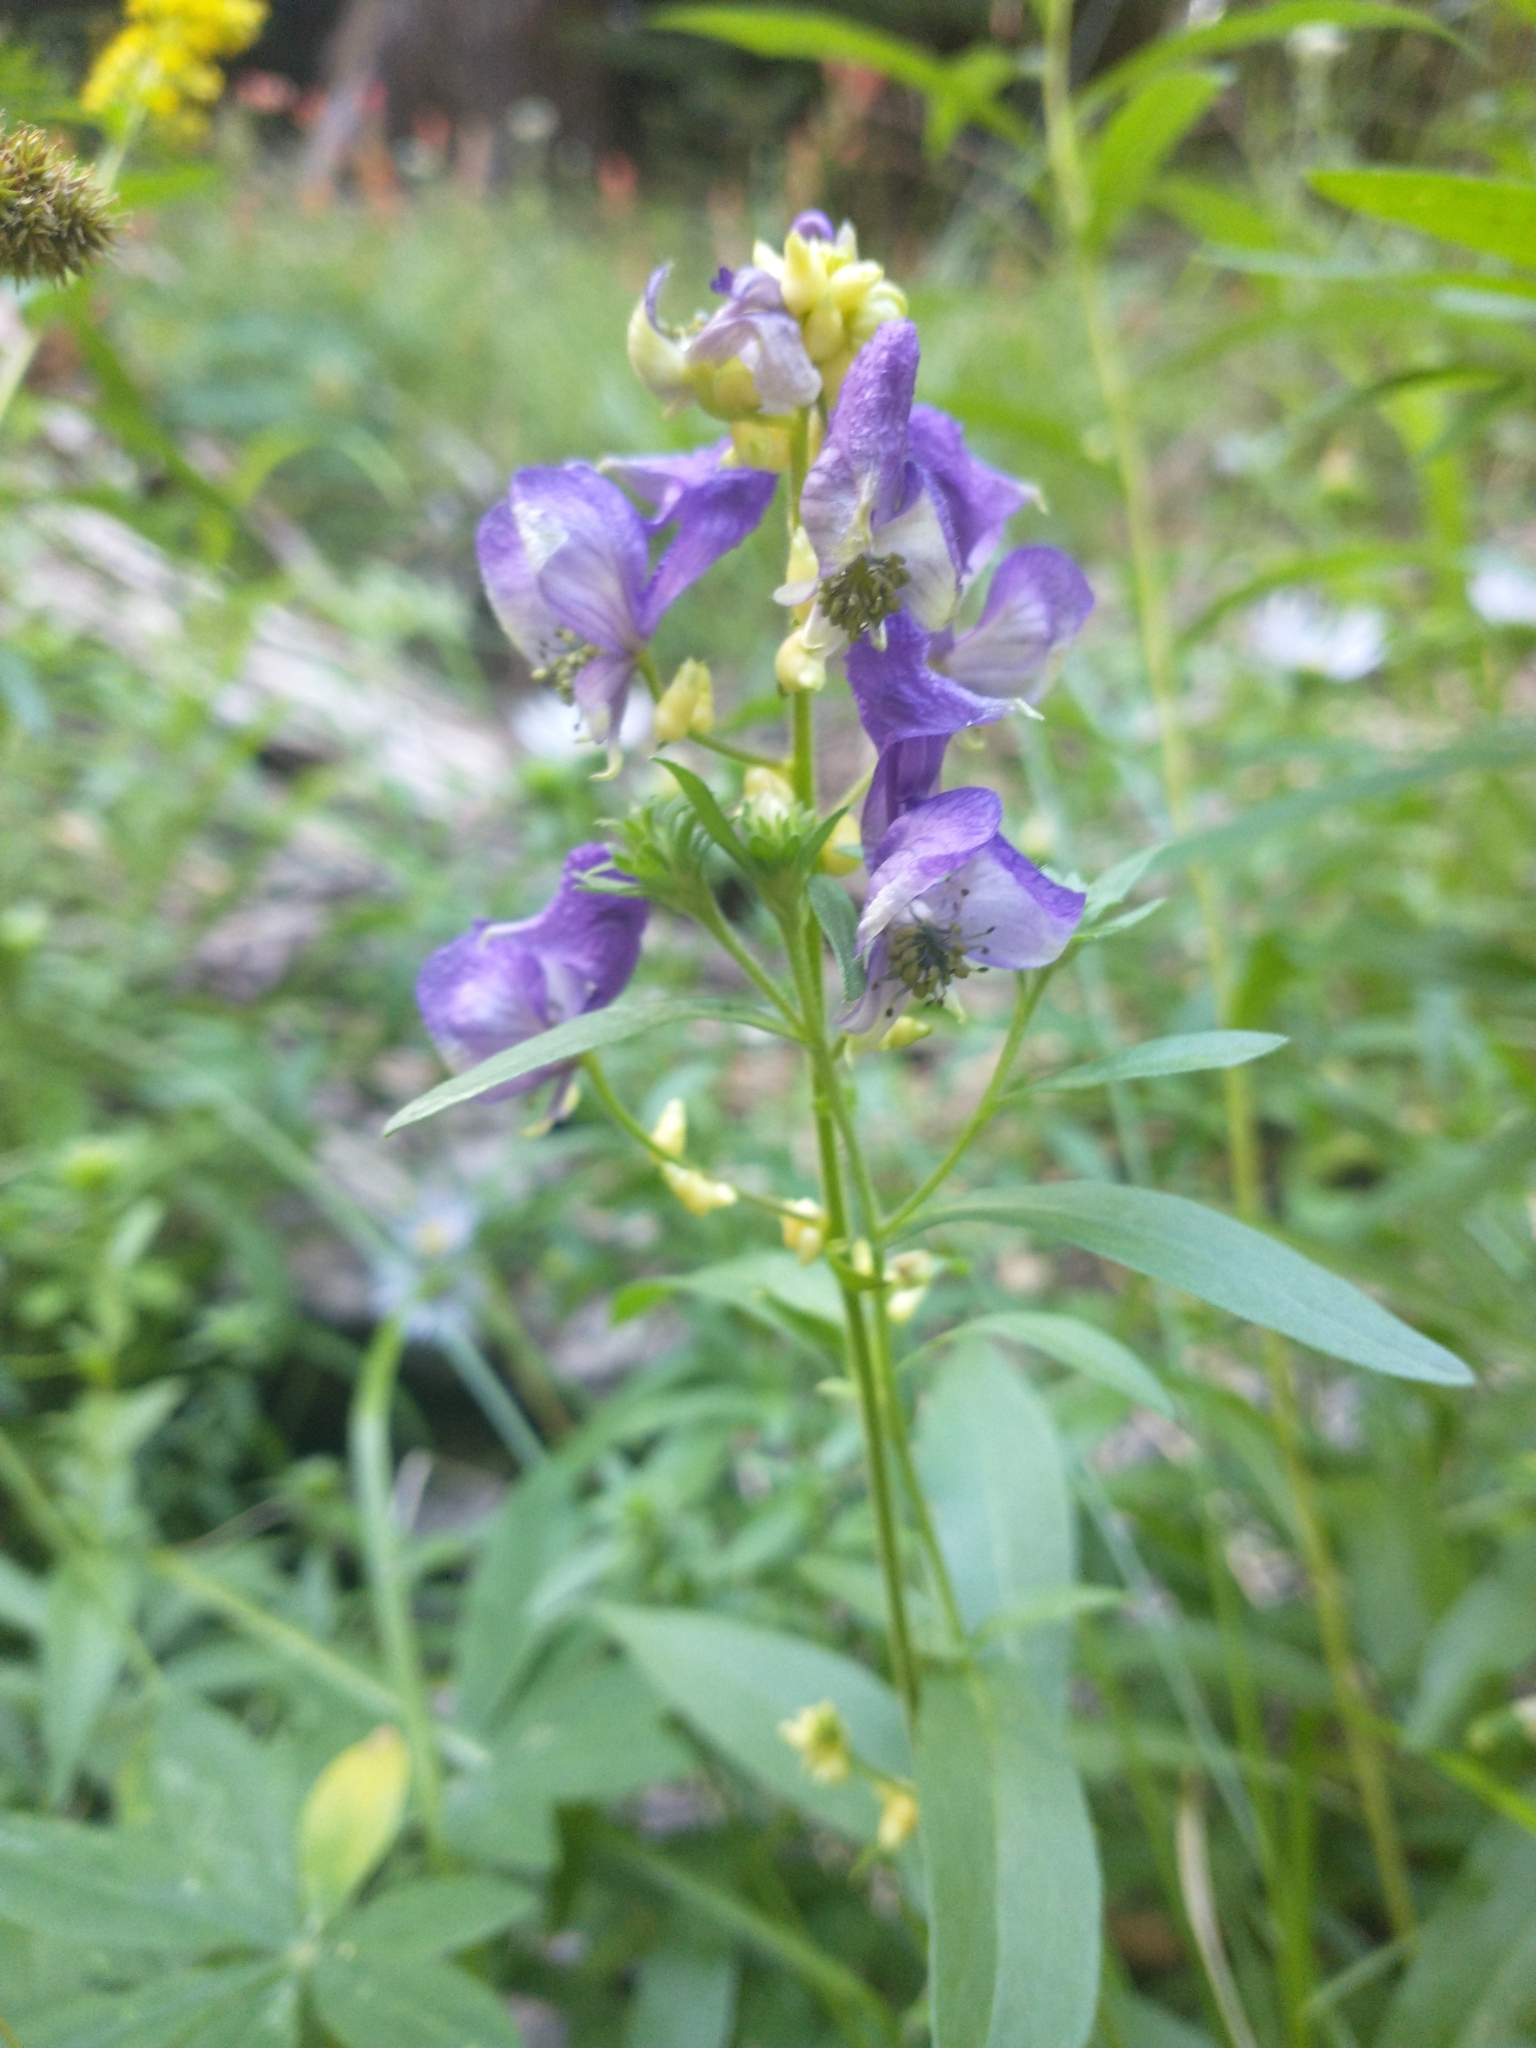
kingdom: Plantae
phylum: Tracheophyta
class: Magnoliopsida
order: Ranunculales
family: Ranunculaceae
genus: Aconitum
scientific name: Aconitum columbianum
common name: Columbia aconite
